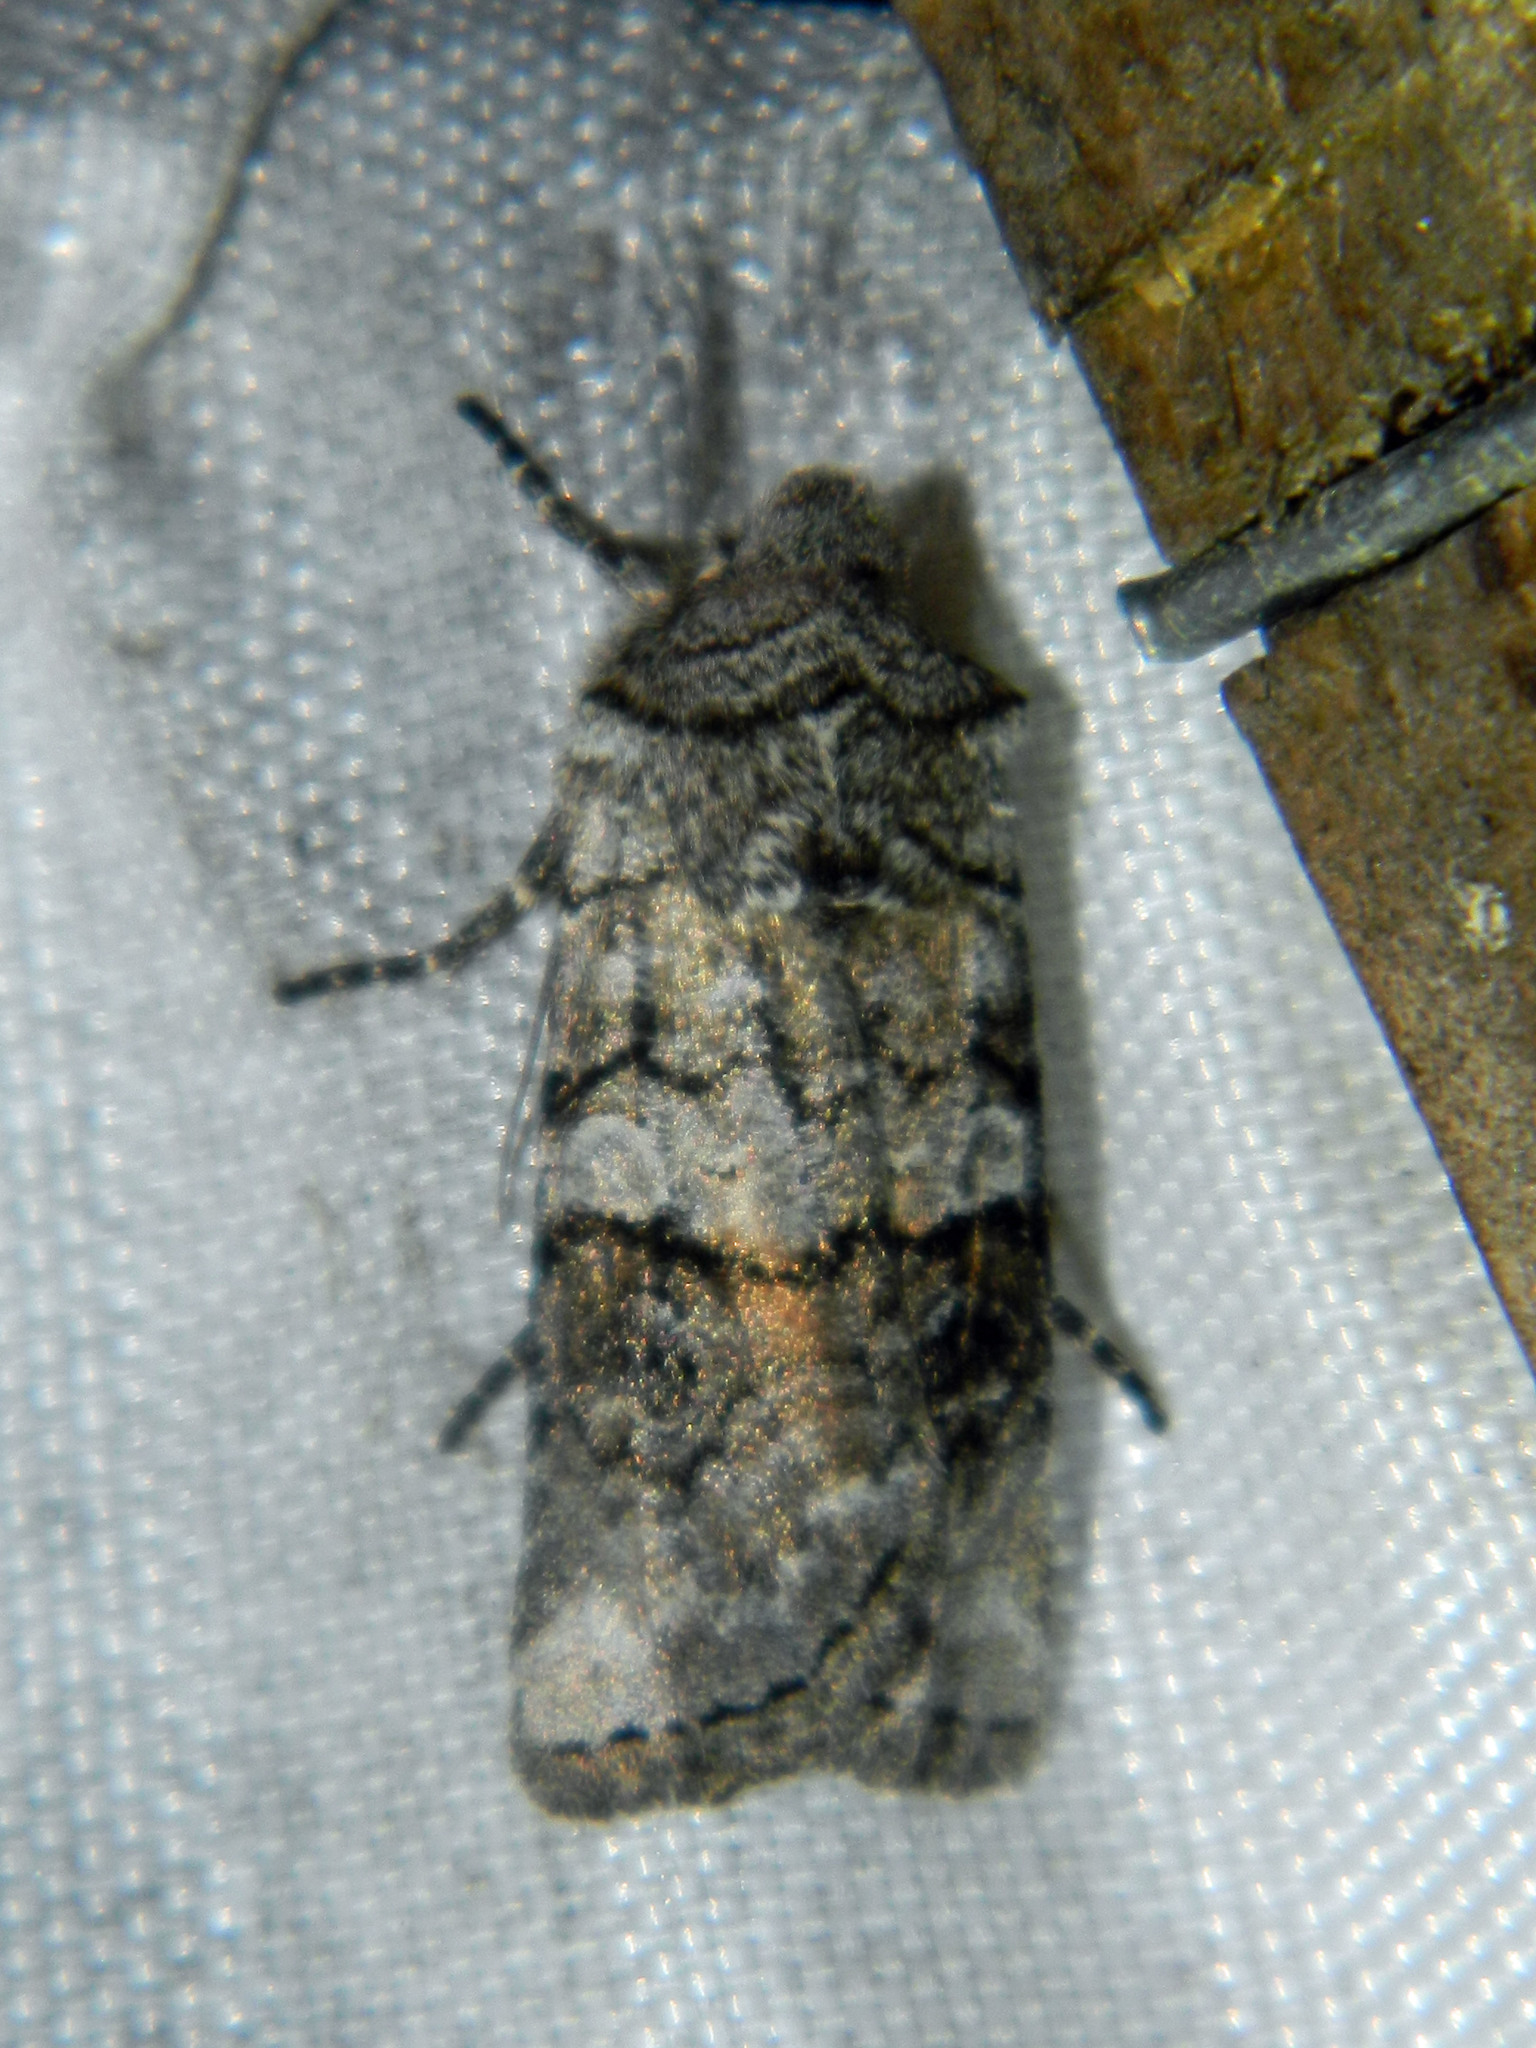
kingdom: Animalia
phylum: Arthropoda
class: Insecta
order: Lepidoptera
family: Noctuidae
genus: Litholomia
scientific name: Litholomia napaea
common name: False pinion moth
